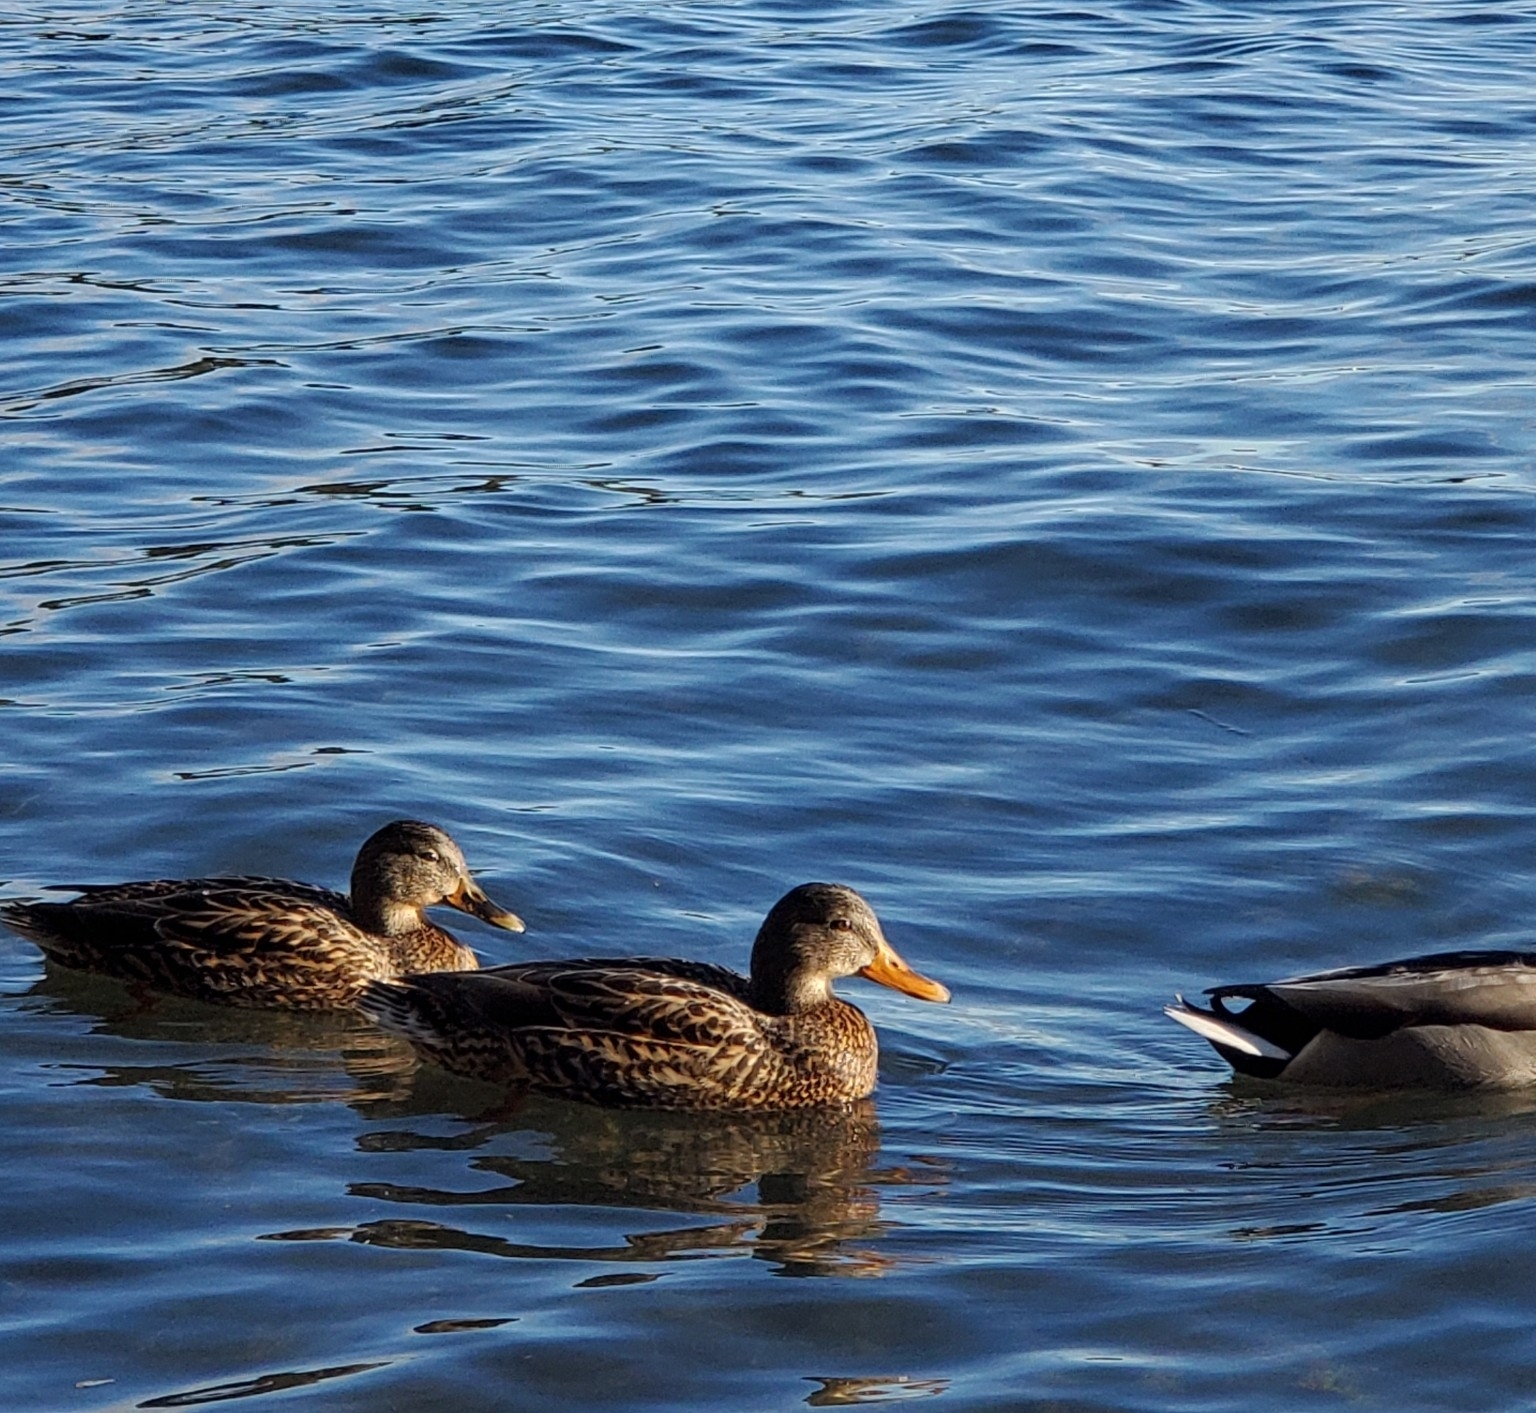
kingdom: Animalia
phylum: Chordata
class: Aves
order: Anseriformes
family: Anatidae
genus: Anas
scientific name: Anas platyrhynchos
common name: Mallard
